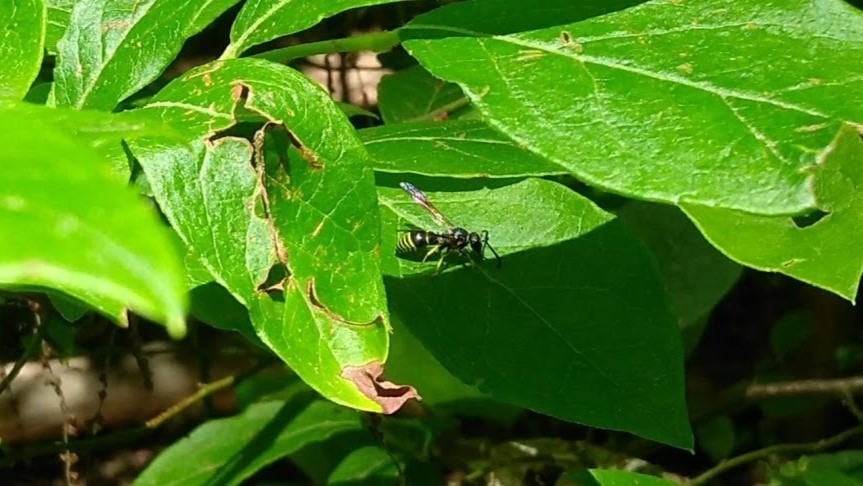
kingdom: Animalia
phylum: Arthropoda
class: Insecta
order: Hymenoptera
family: Vespidae
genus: Ancistrocerus
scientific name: Ancistrocerus
